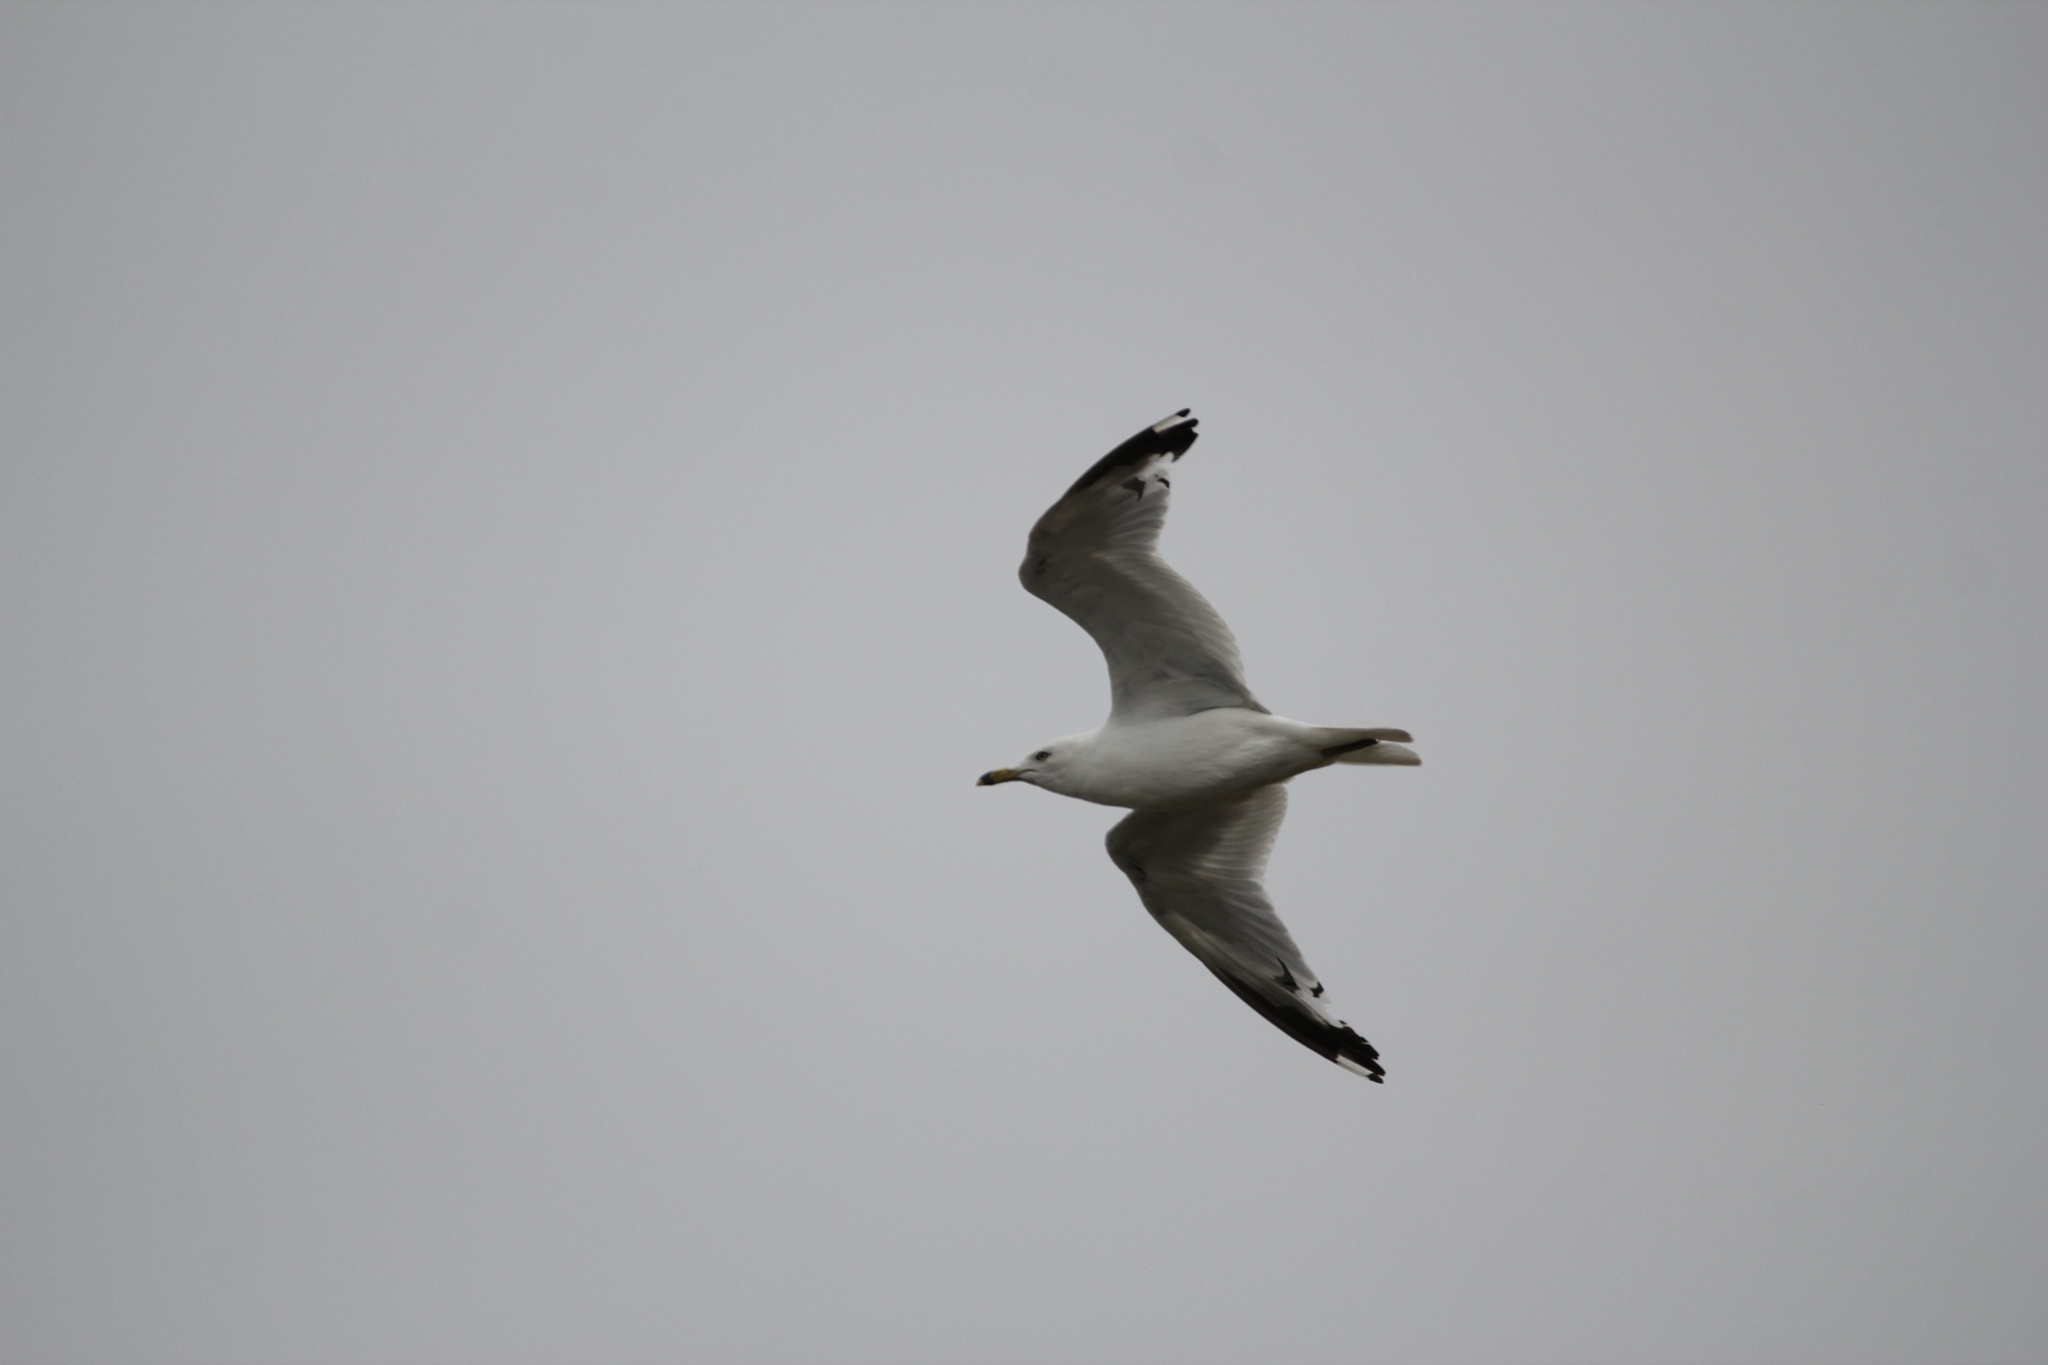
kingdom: Animalia
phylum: Chordata
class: Aves
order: Charadriiformes
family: Laridae
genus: Larus
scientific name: Larus delawarensis
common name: Ring-billed gull
